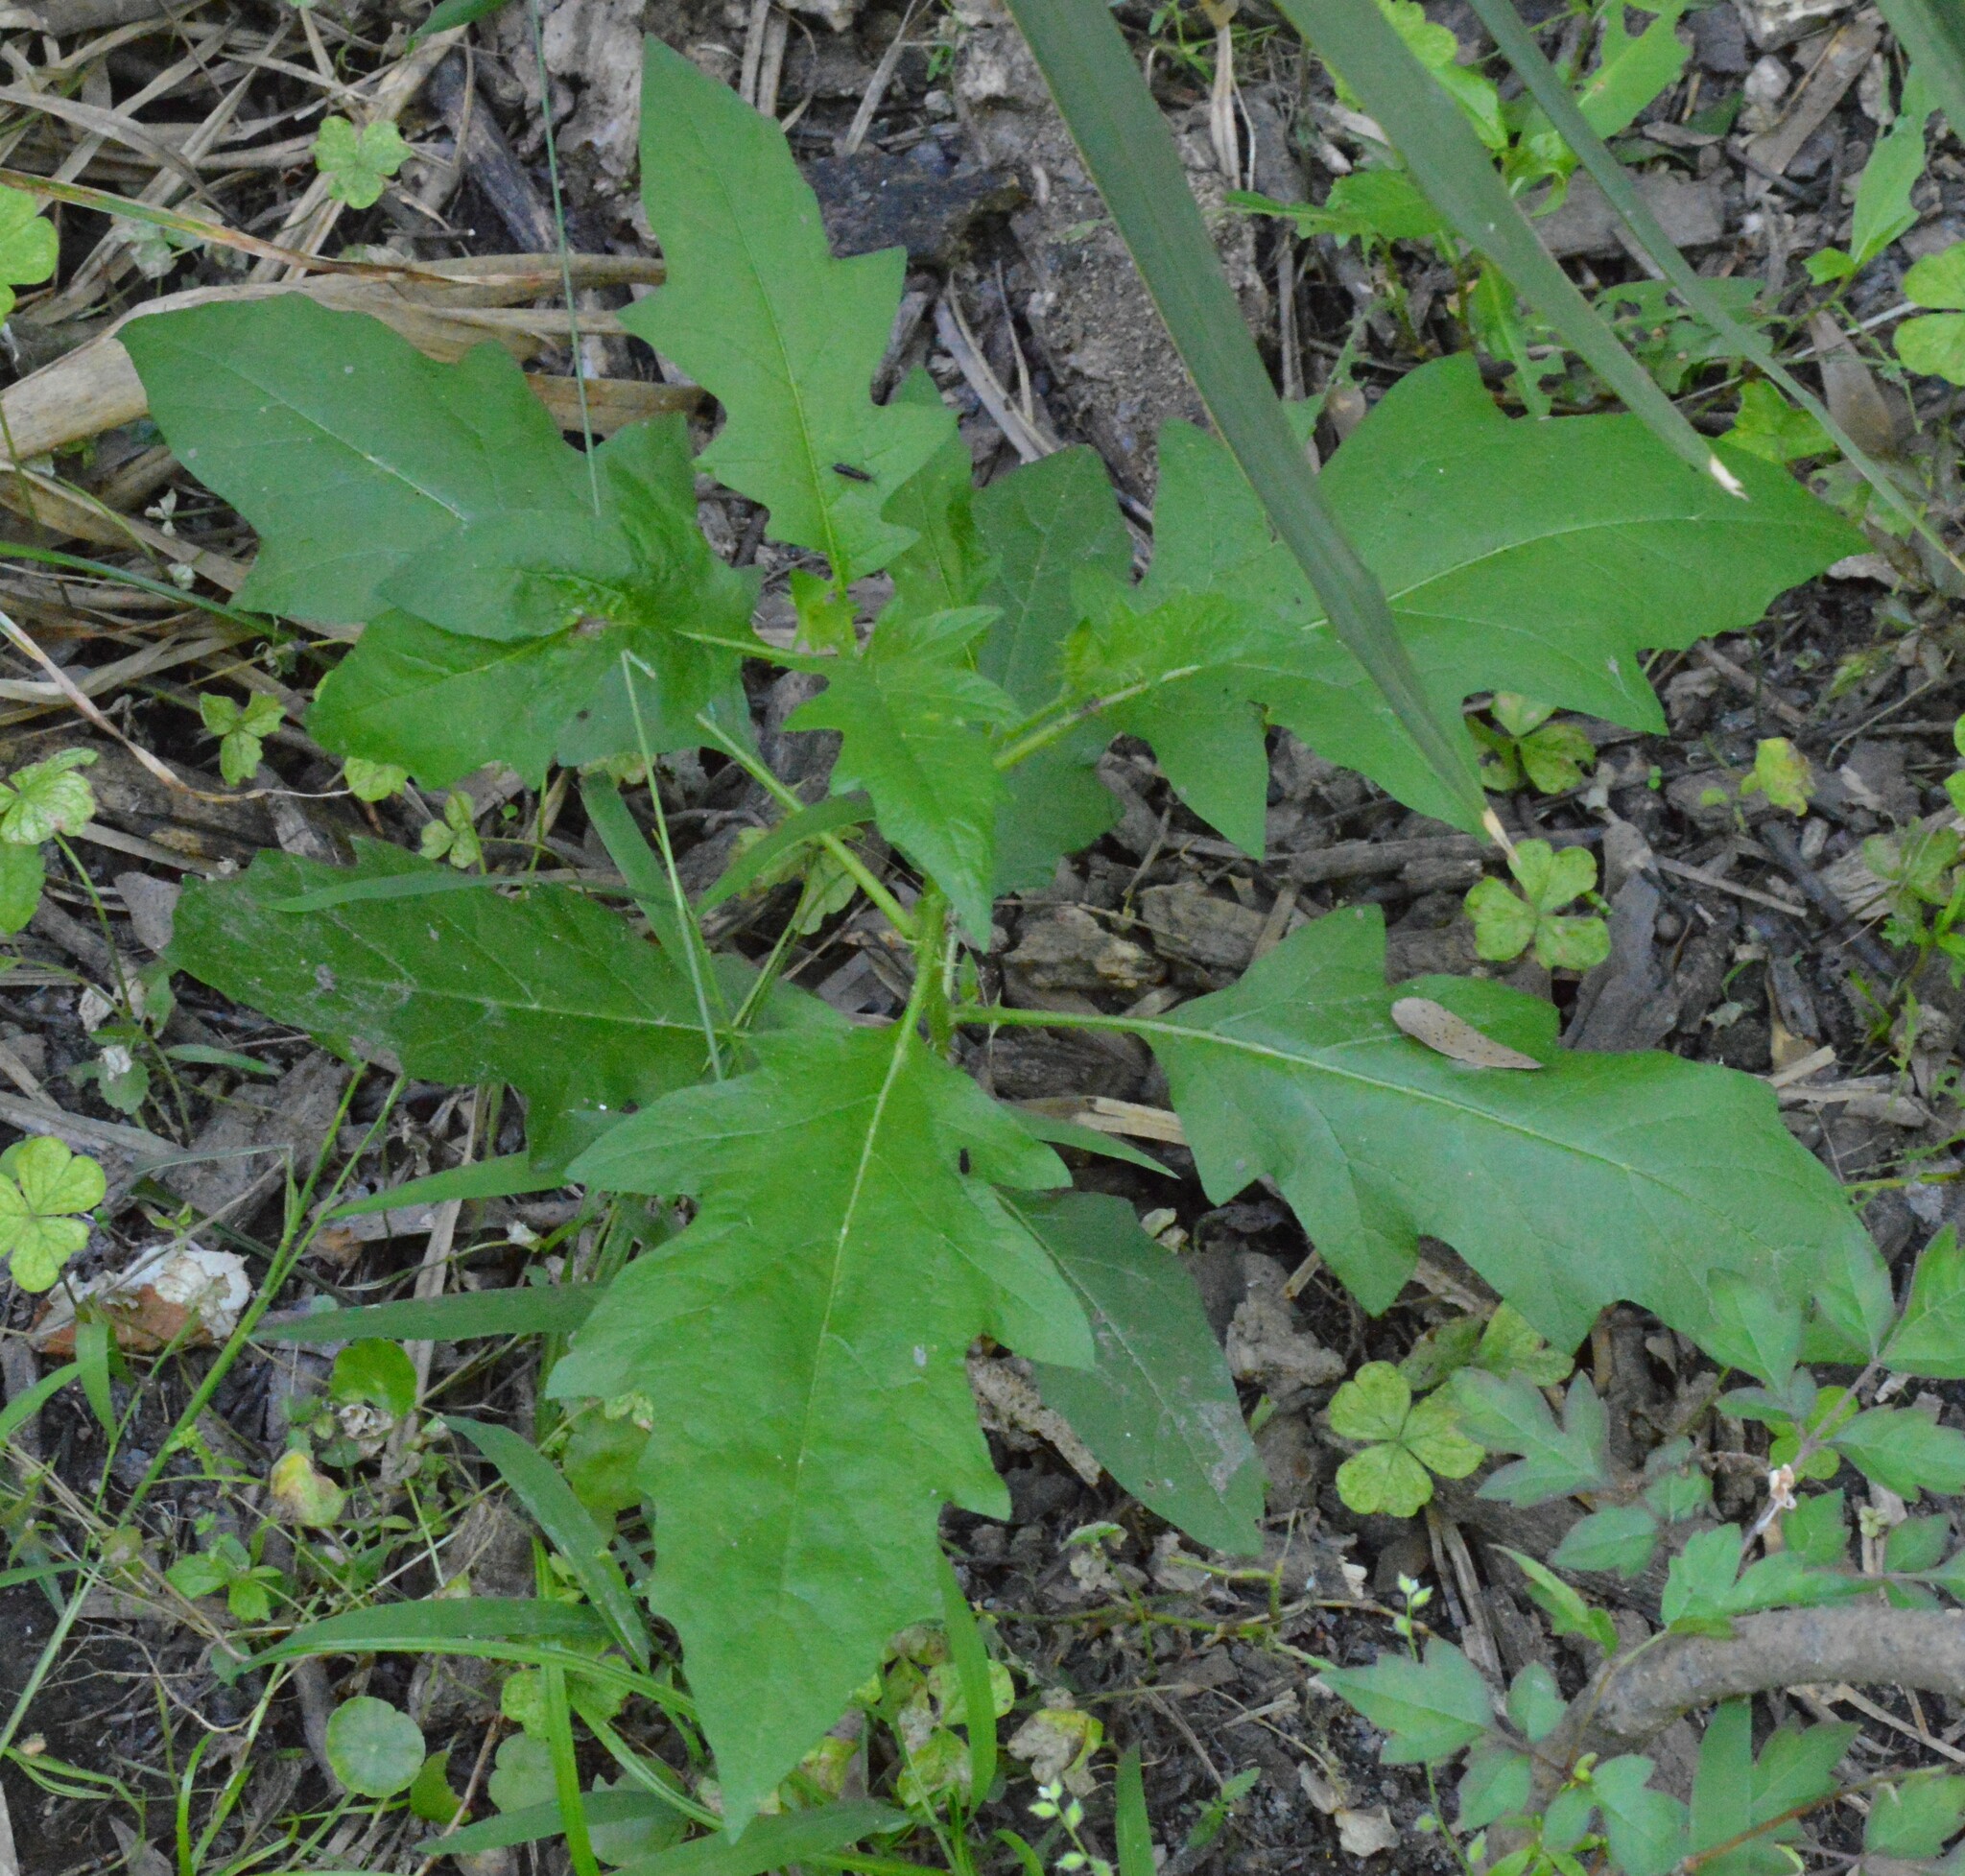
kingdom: Plantae
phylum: Tracheophyta
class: Magnoliopsida
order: Solanales
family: Solanaceae
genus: Solanum
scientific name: Solanum carolinense
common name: Horse-nettle
